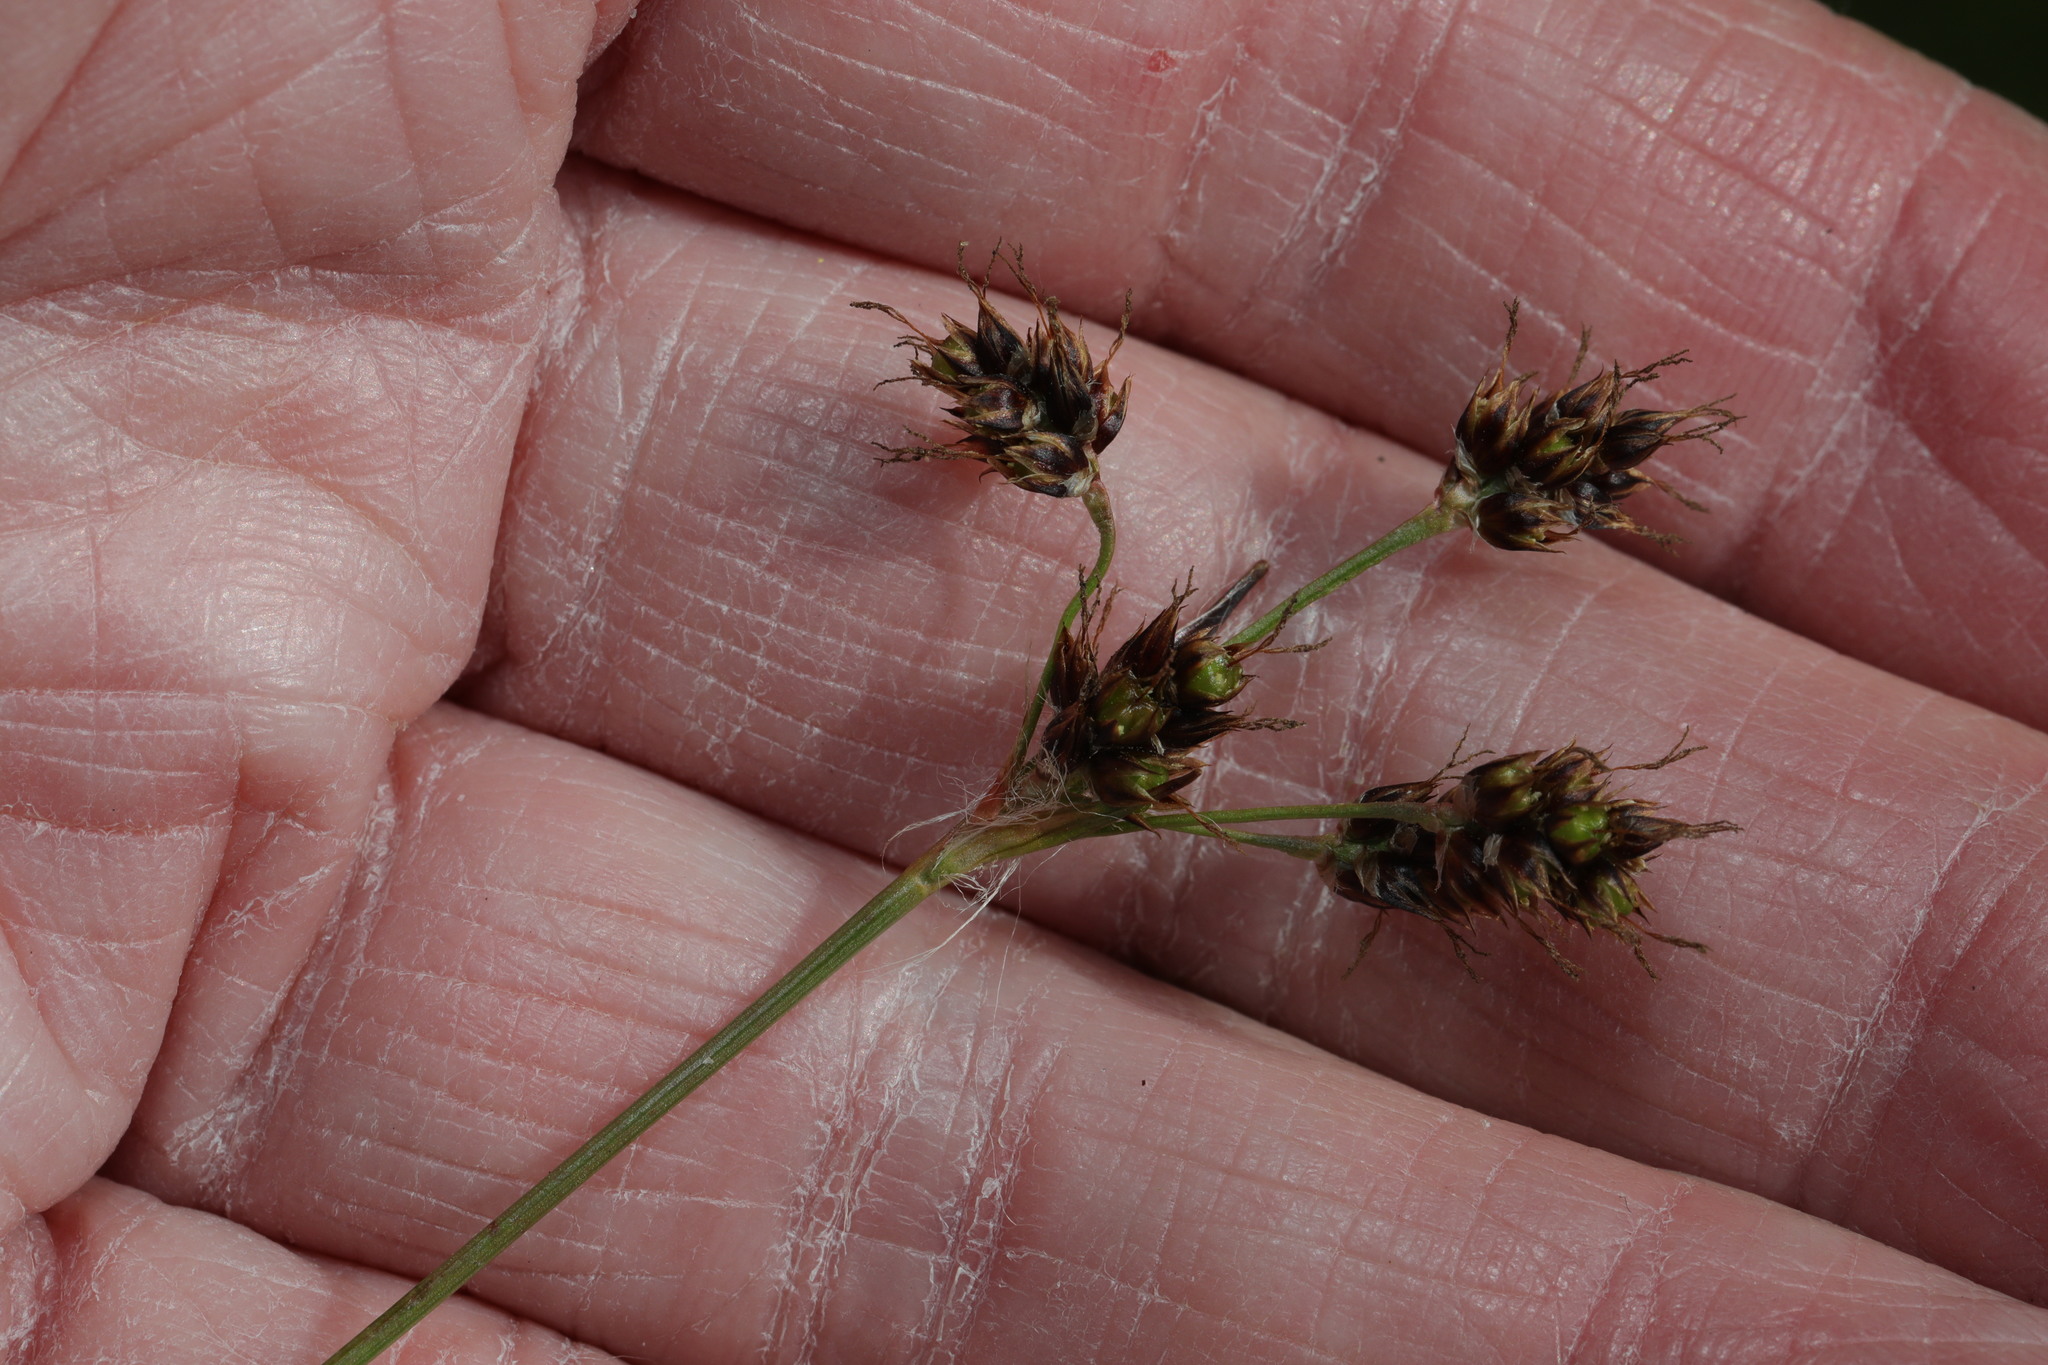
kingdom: Plantae
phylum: Tracheophyta
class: Liliopsida
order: Poales
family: Juncaceae
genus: Luzula
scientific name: Luzula campestris
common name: Field wood-rush
